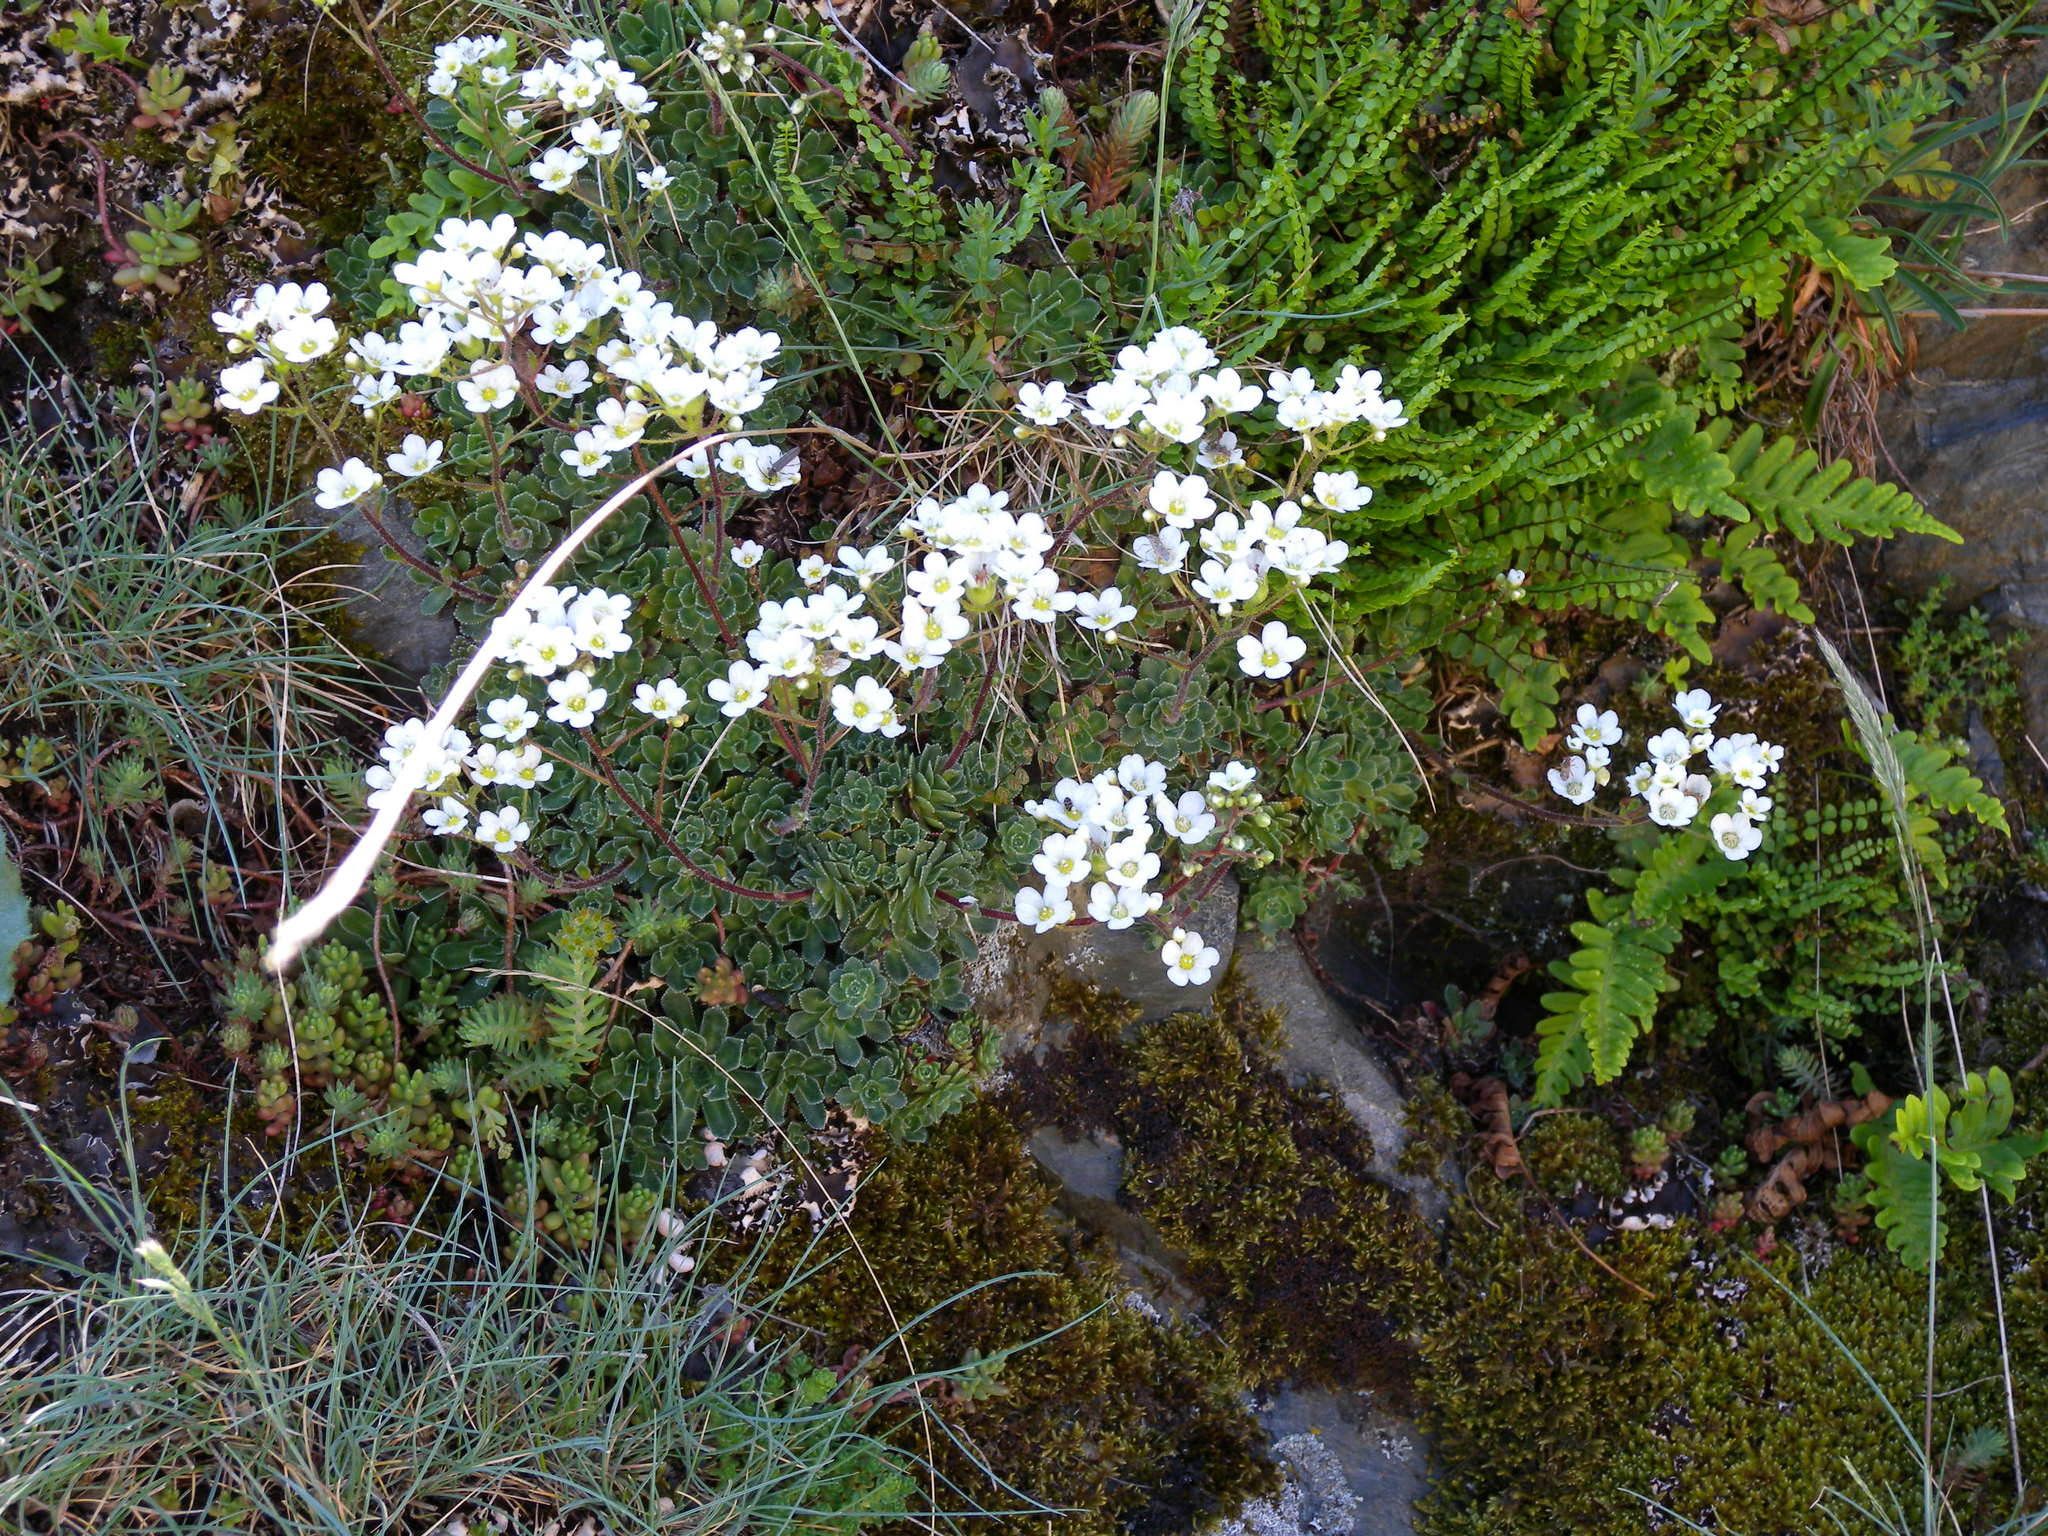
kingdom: Plantae
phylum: Tracheophyta
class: Magnoliopsida
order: Saxifragales
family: Saxifragaceae
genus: Saxifraga
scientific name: Saxifraga paniculata
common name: Livelong saxifrage
